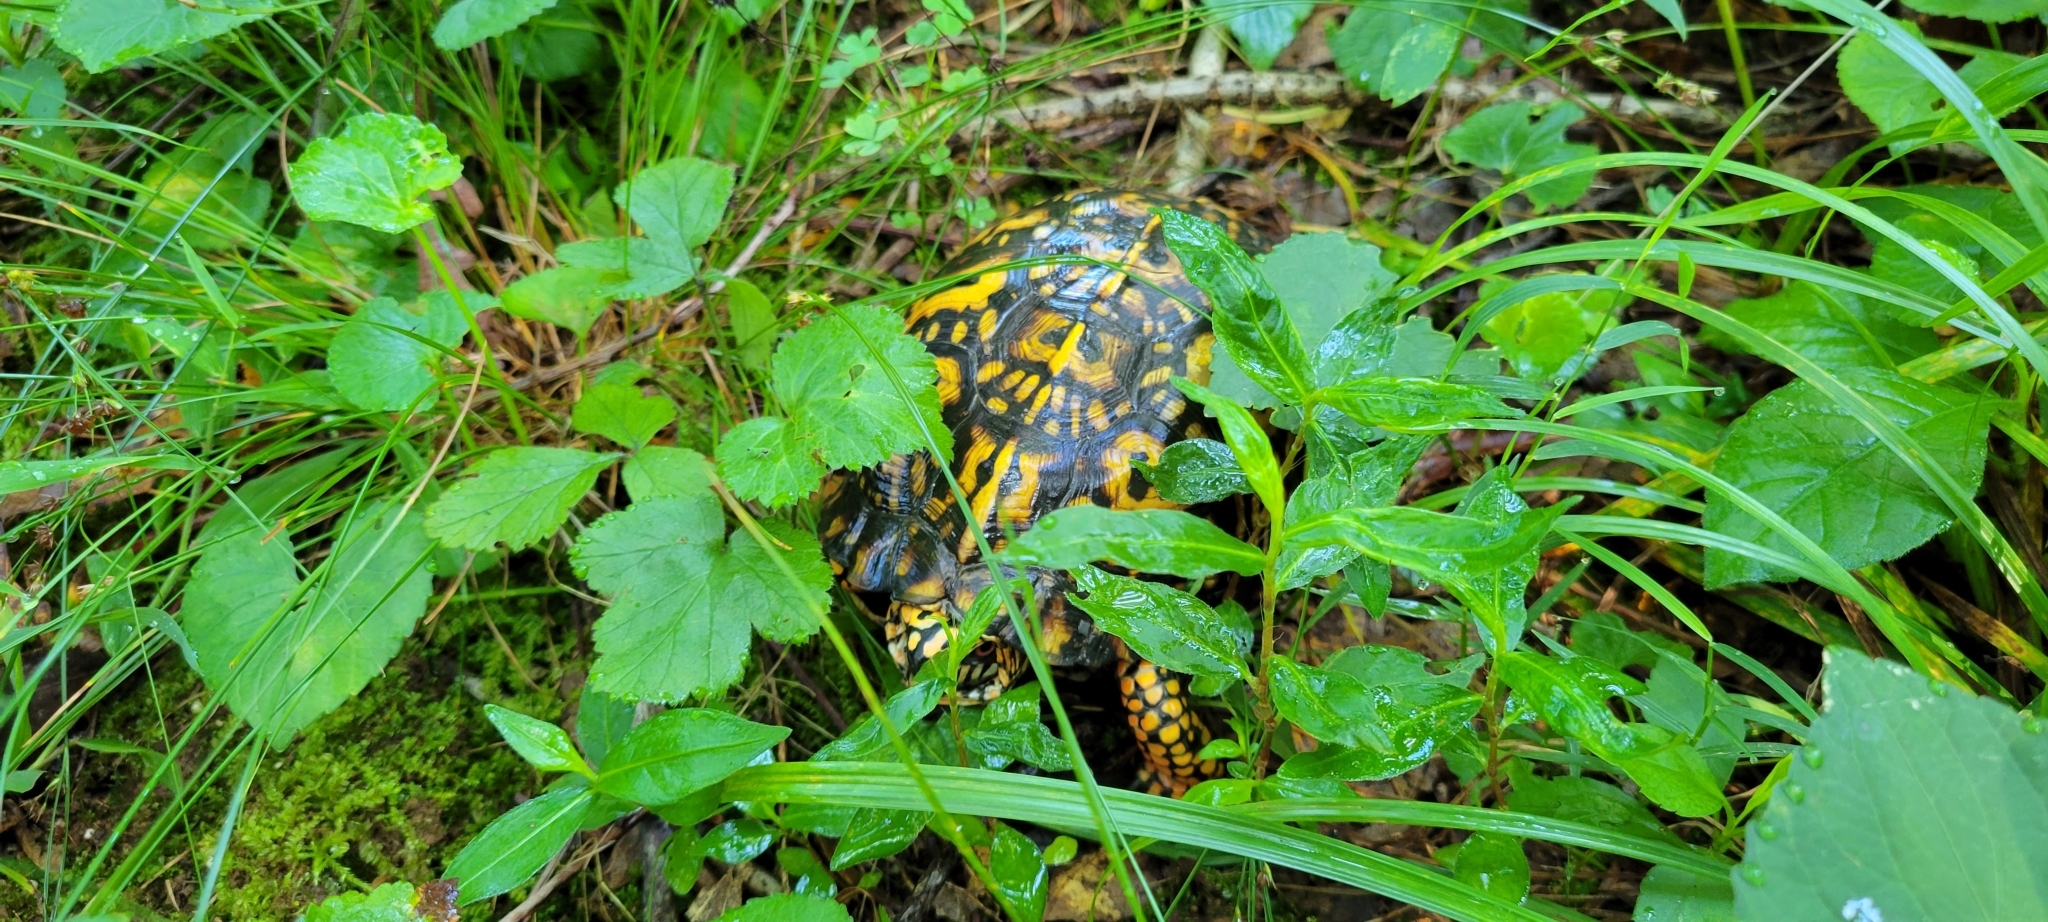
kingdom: Animalia
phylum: Chordata
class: Testudines
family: Emydidae
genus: Terrapene
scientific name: Terrapene carolina
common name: Common box turtle
